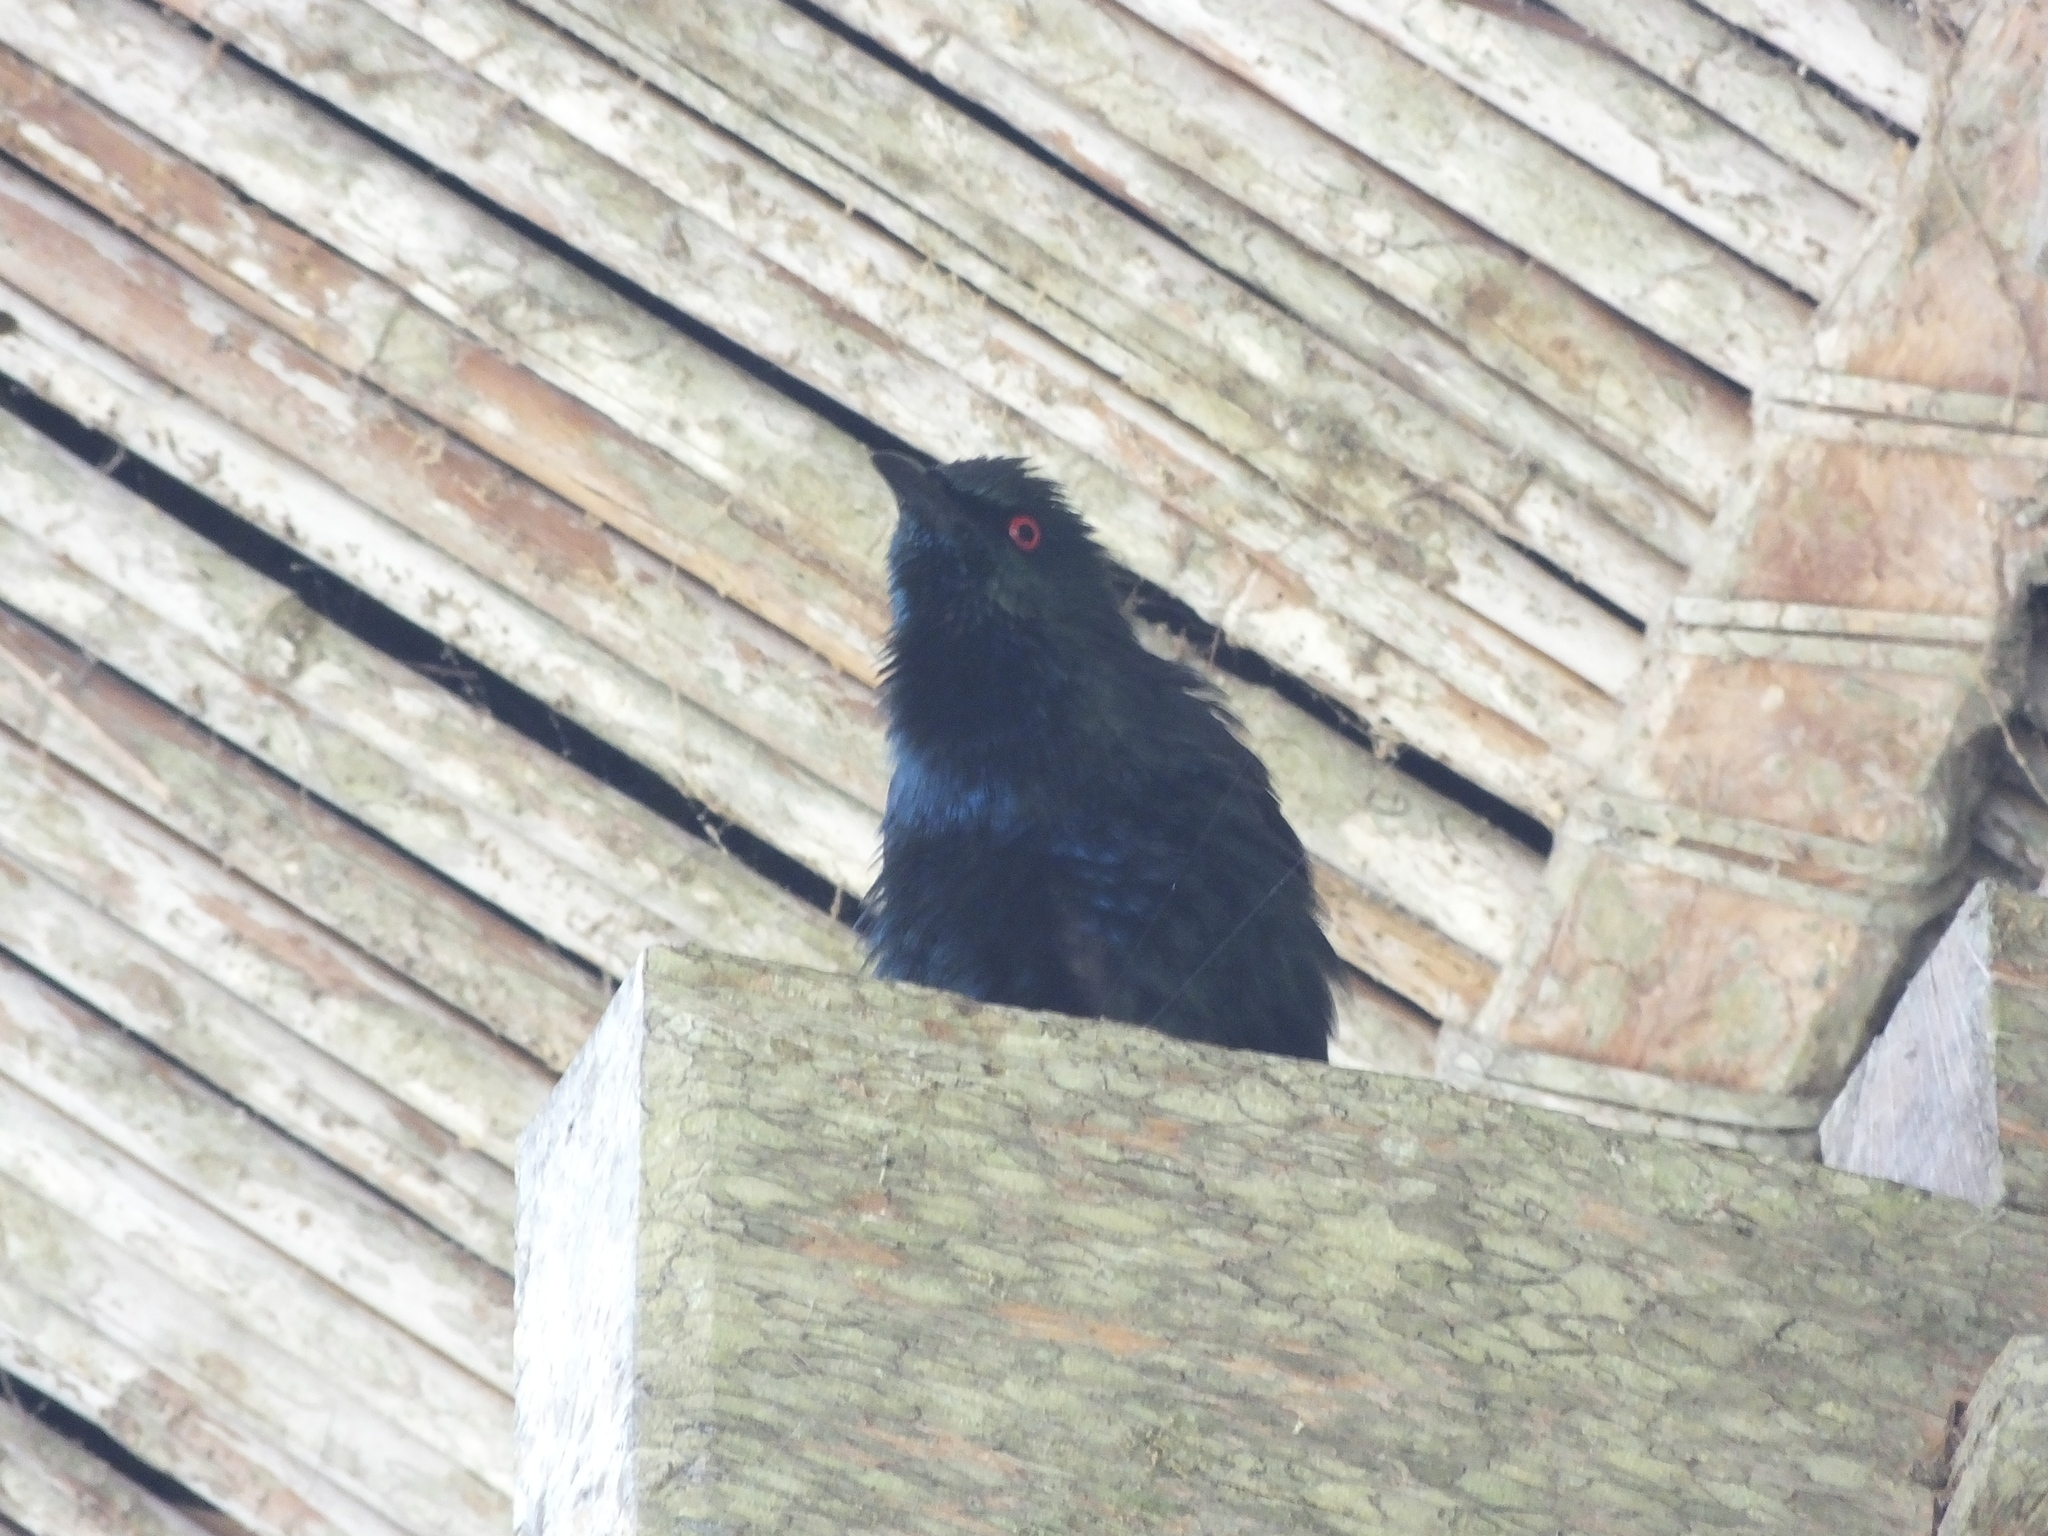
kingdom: Animalia
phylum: Chordata
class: Aves
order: Passeriformes
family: Sturnidae
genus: Aplonis
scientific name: Aplonis panayensis
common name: Asian glossy starling
